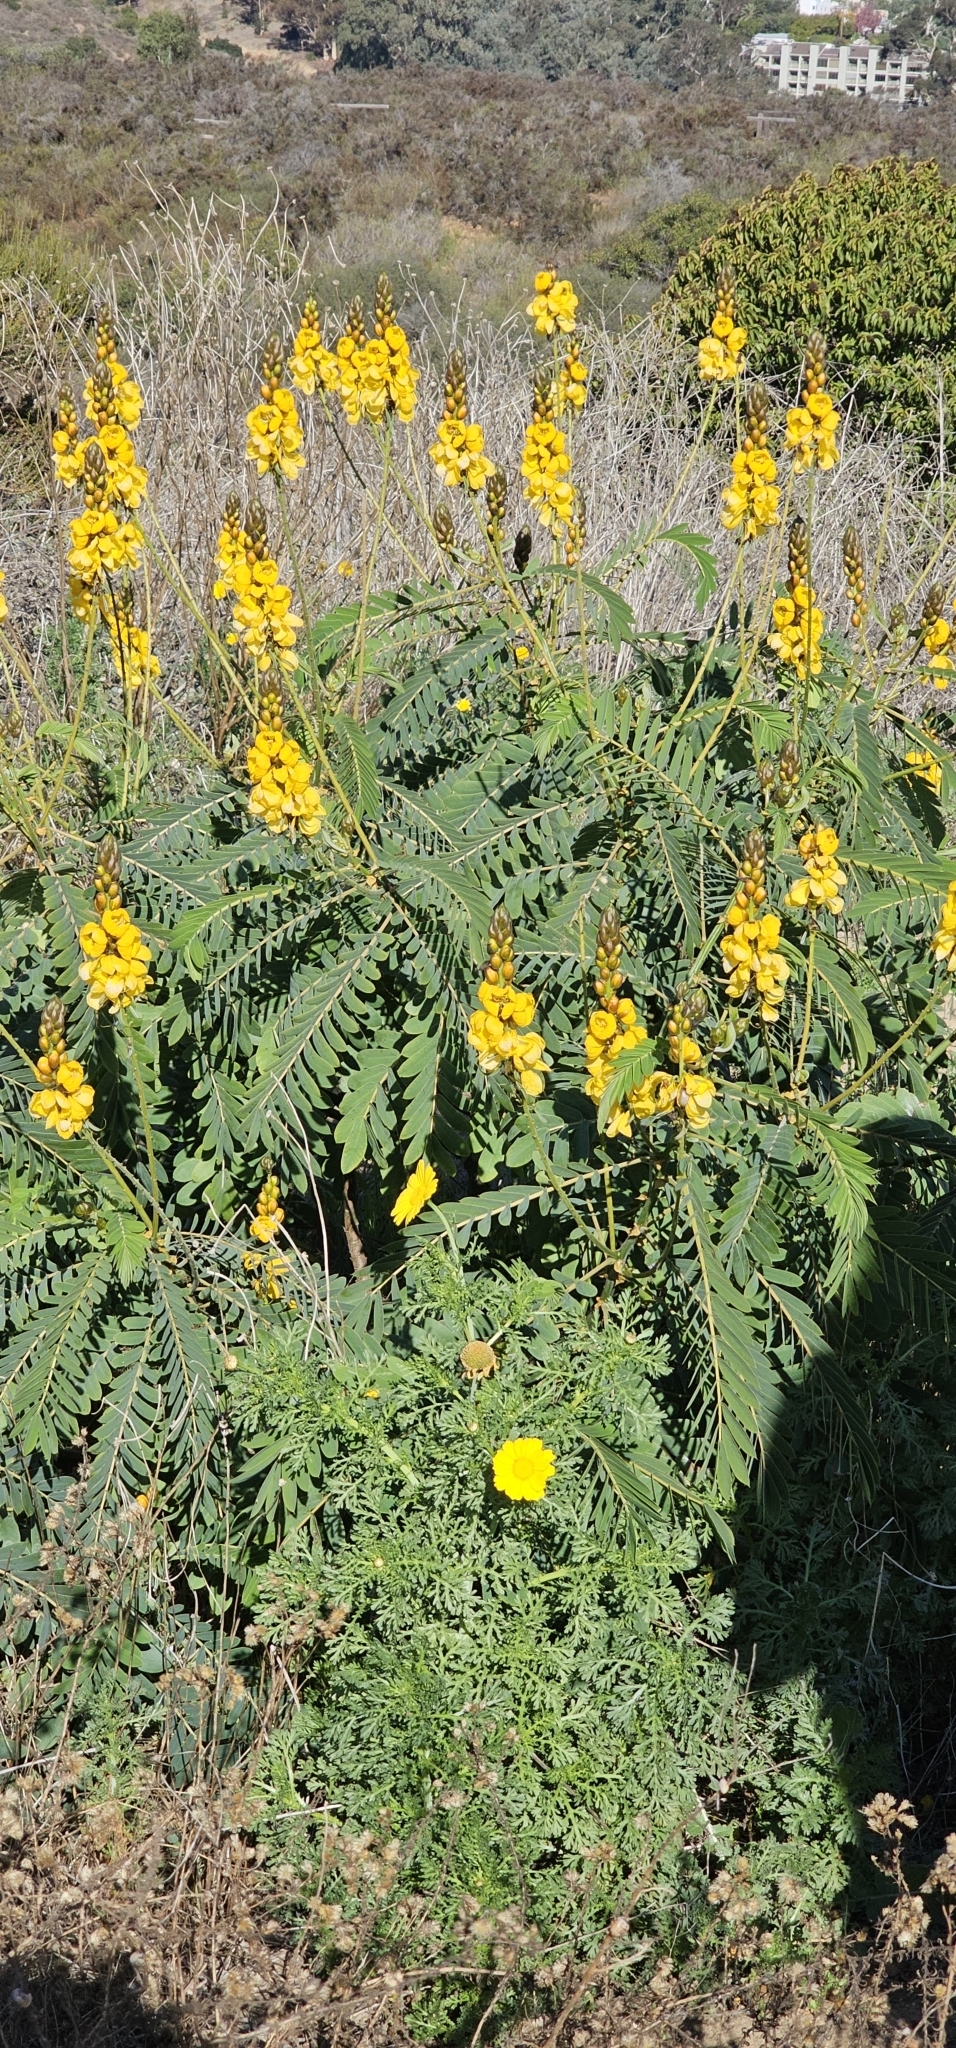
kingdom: Plantae
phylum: Tracheophyta
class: Magnoliopsida
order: Fabales
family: Fabaceae
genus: Senna
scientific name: Senna didymobotrya
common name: African senna
